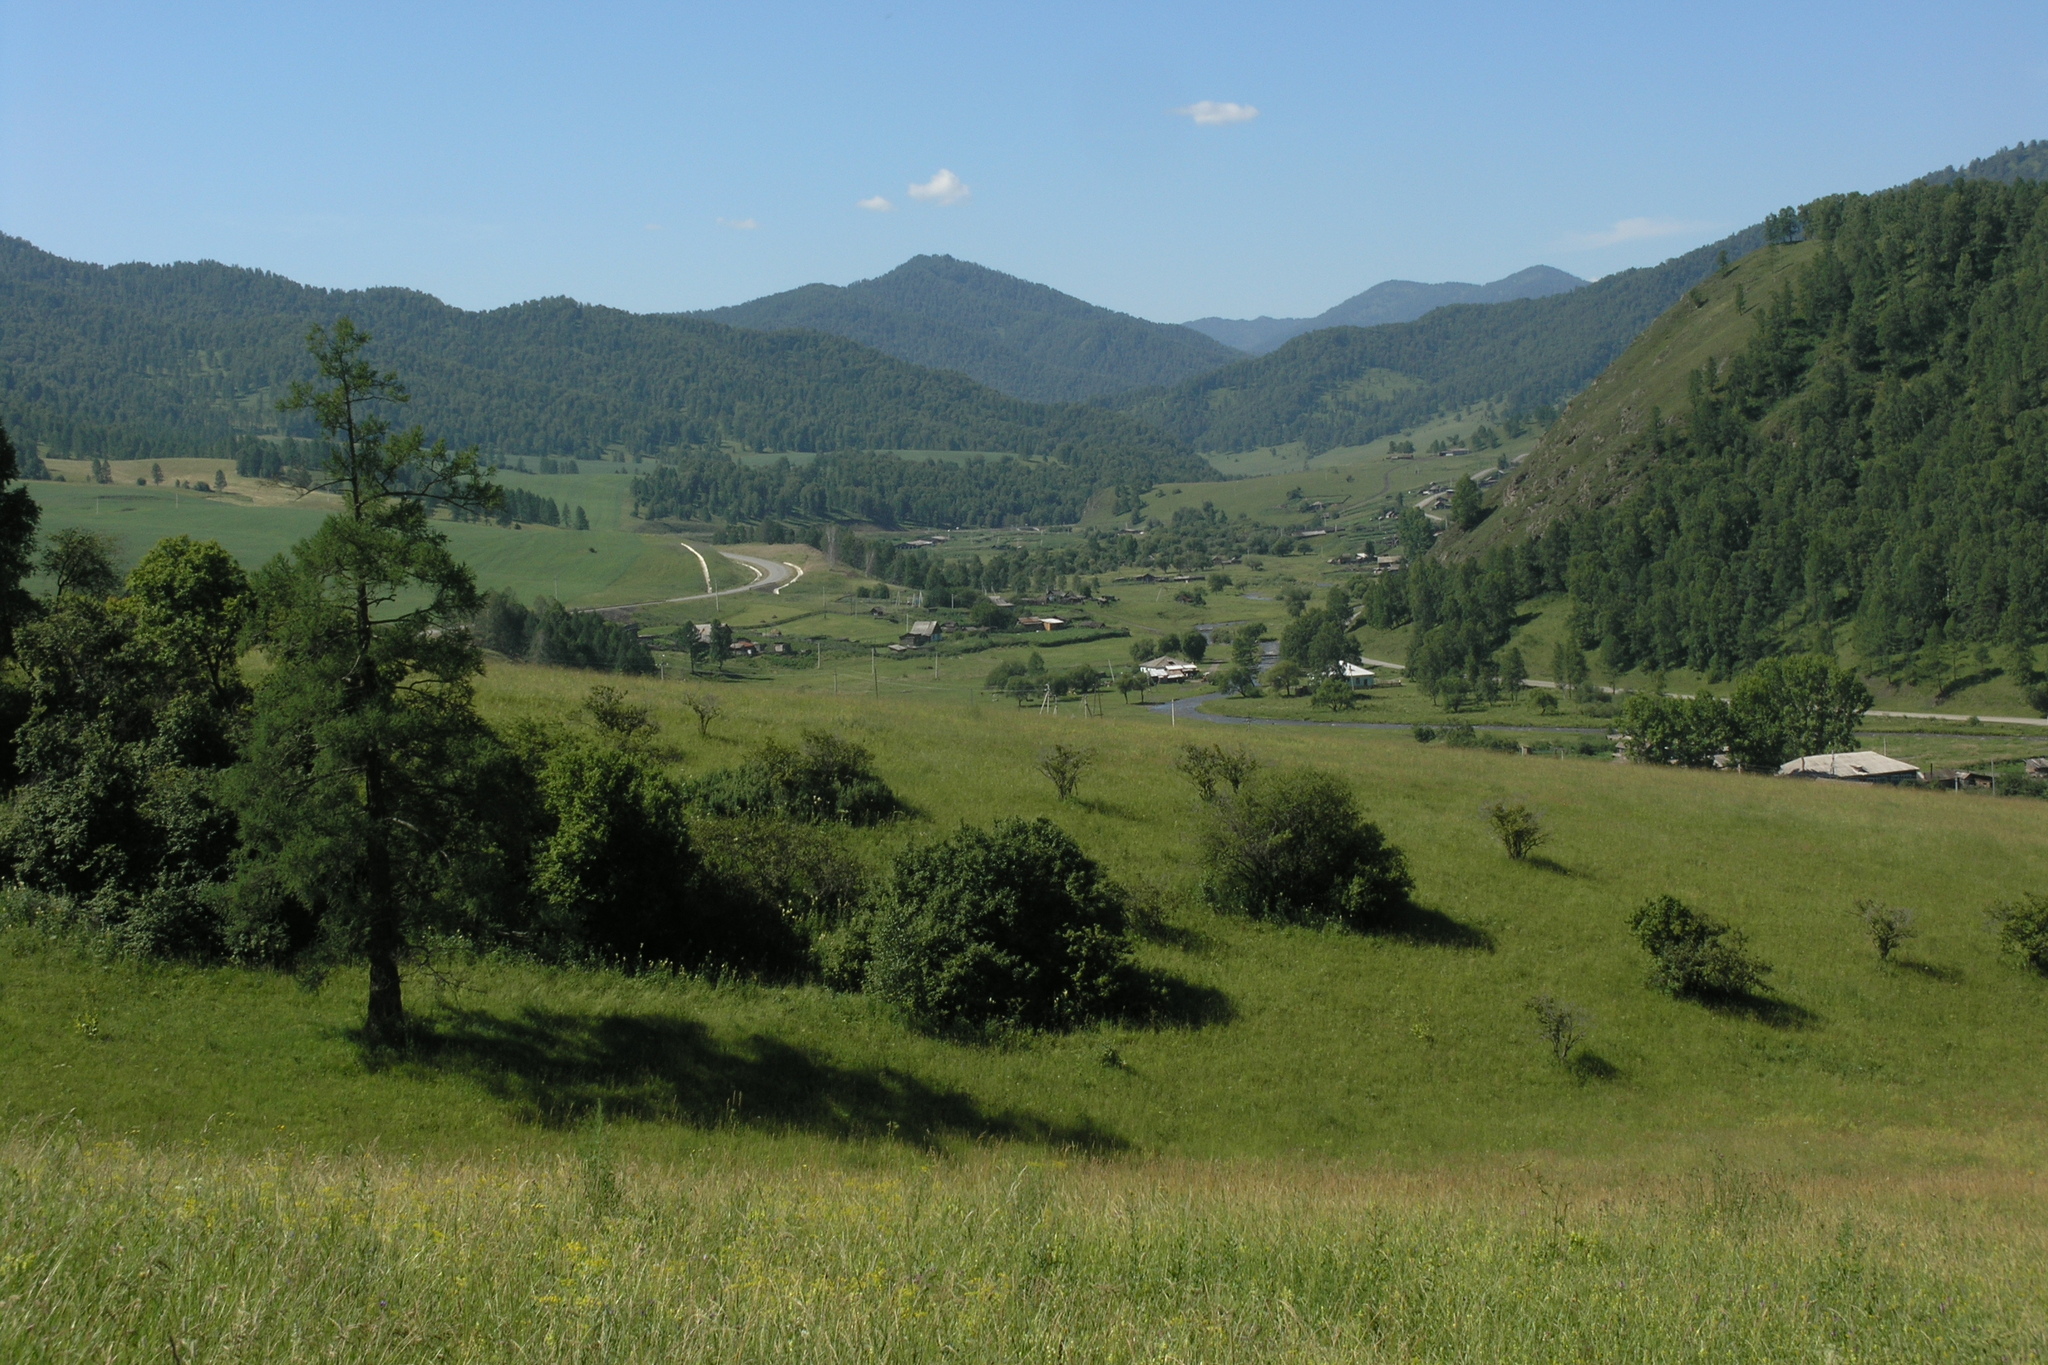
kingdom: Plantae
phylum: Tracheophyta
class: Pinopsida
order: Pinales
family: Pinaceae
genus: Larix
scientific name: Larix sibirica
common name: Siberian larch
